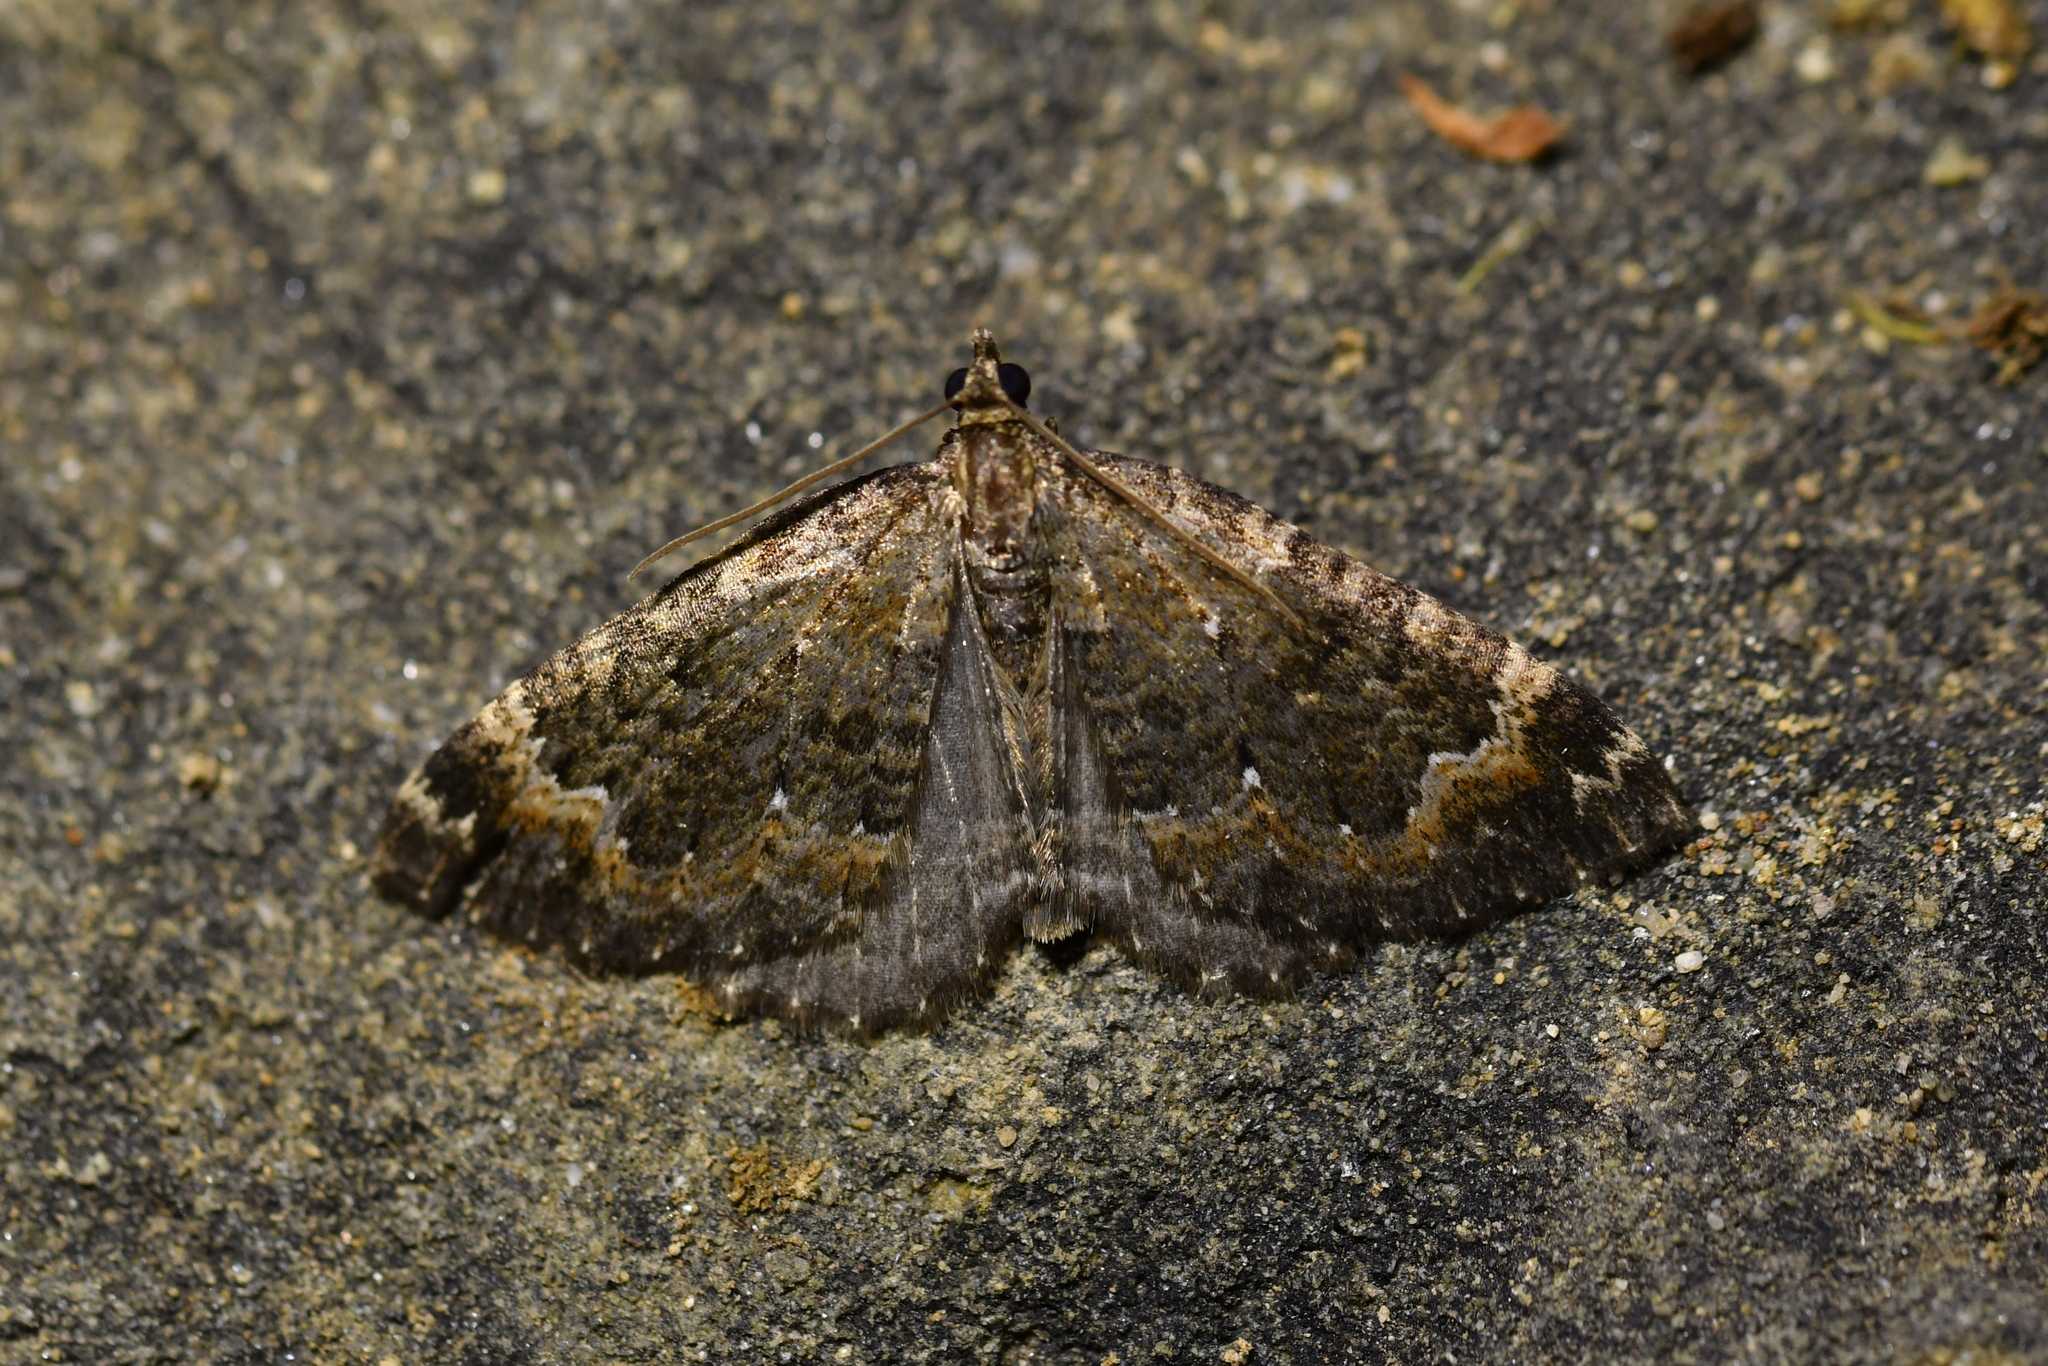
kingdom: Animalia
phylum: Arthropoda
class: Insecta
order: Lepidoptera
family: Geometridae
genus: Hydriomena
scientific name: Hydriomena hemizona
